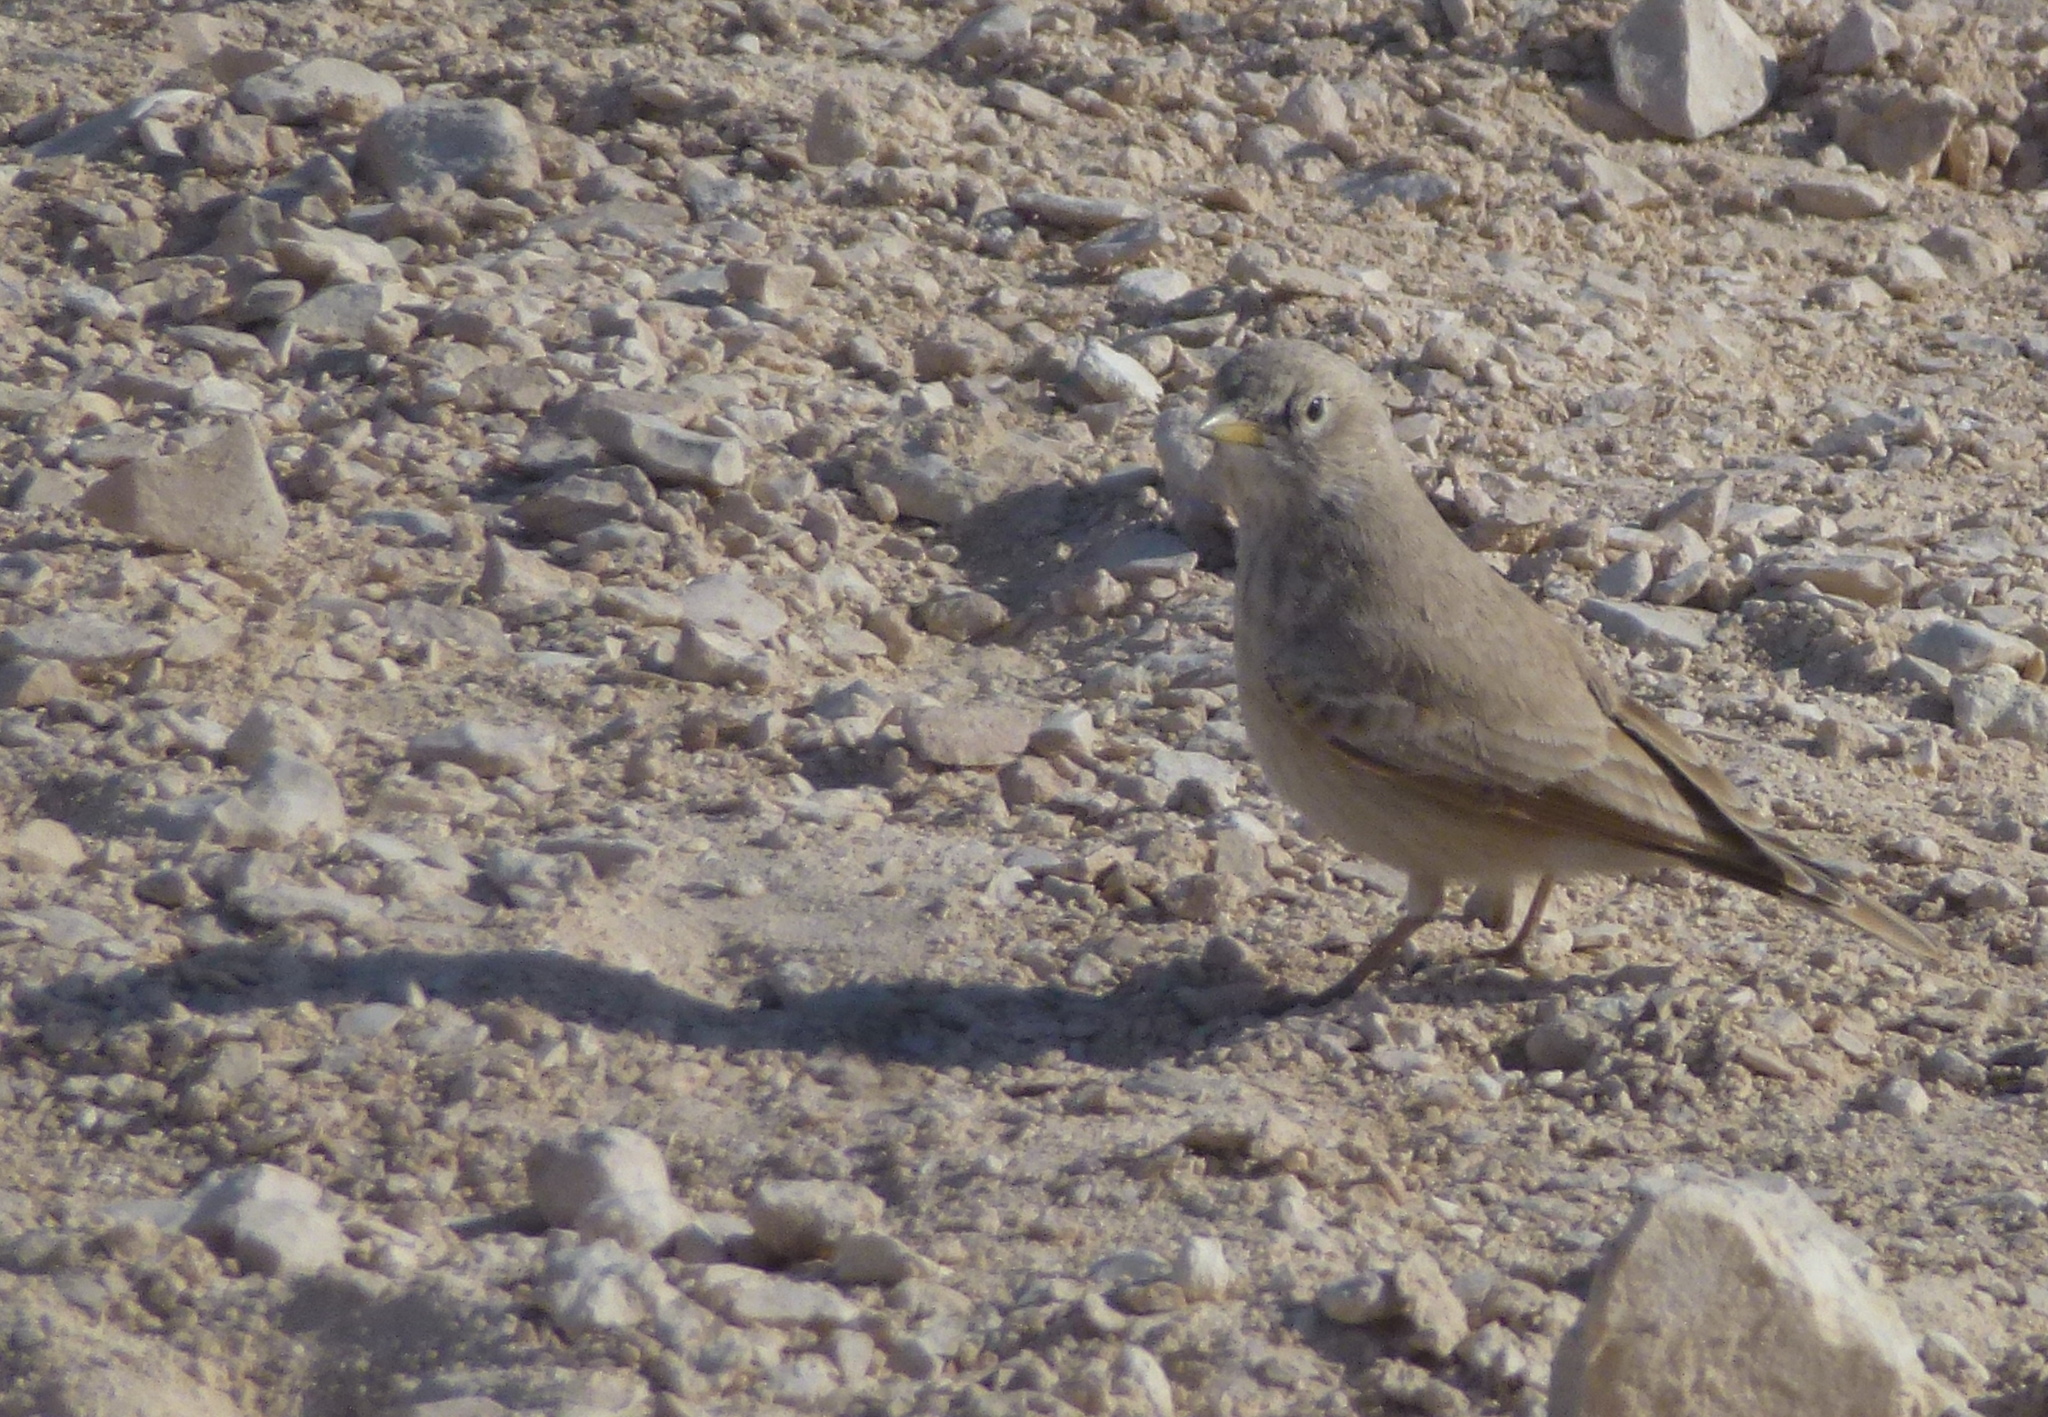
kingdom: Animalia
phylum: Chordata
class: Aves
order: Passeriformes
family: Alaudidae
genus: Ammomanes
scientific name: Ammomanes deserti
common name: Desert lark
